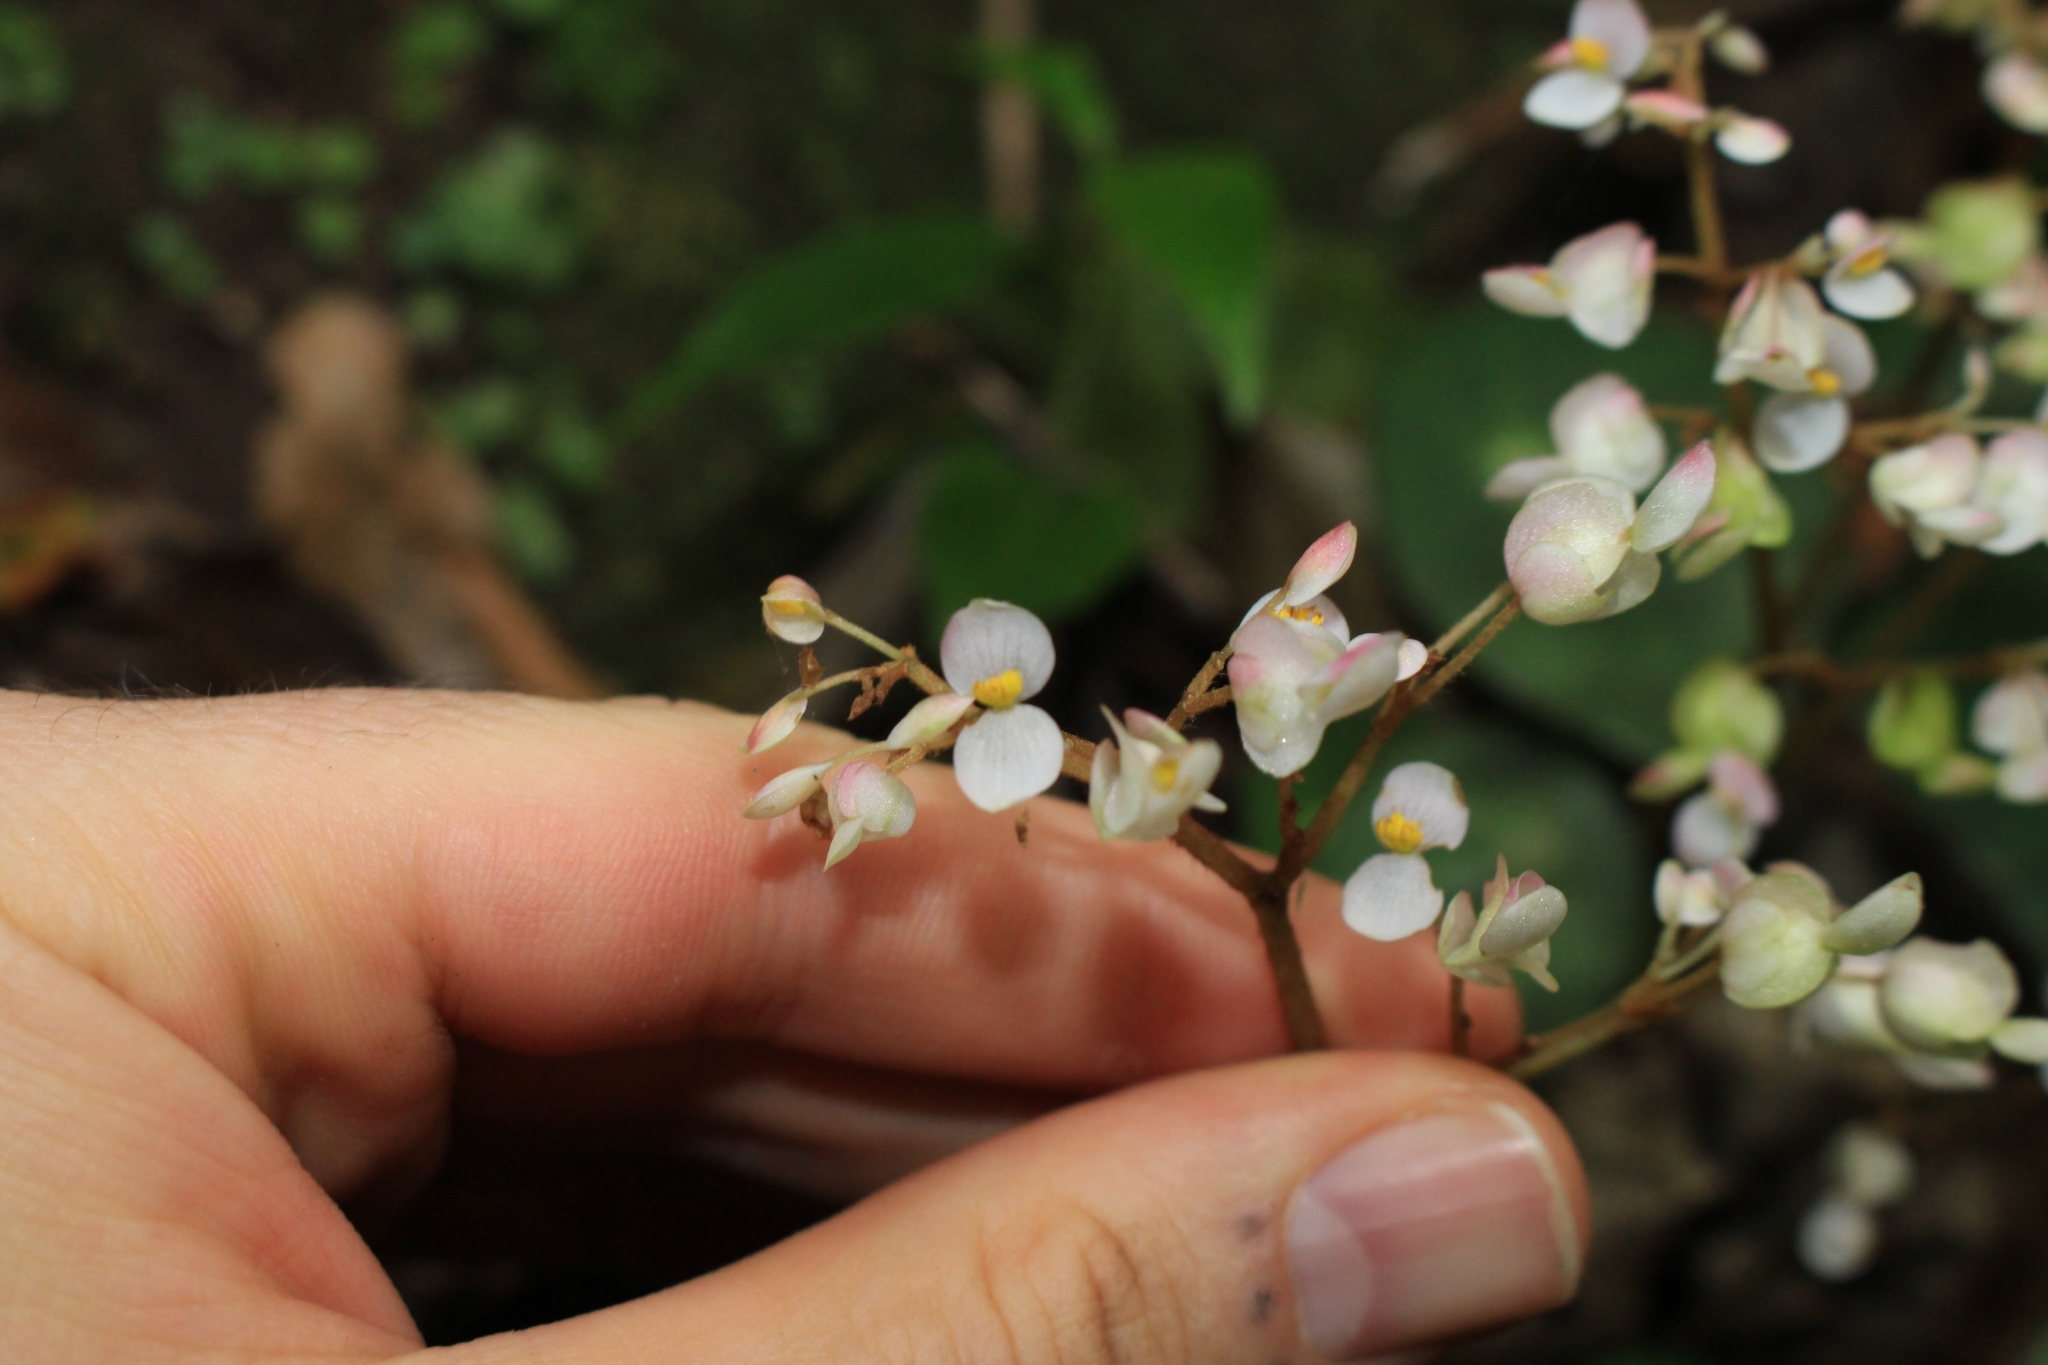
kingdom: Plantae
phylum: Tracheophyta
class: Magnoliopsida
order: Cucurbitales
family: Begoniaceae
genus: Begonia
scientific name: Begonia conchifolia
